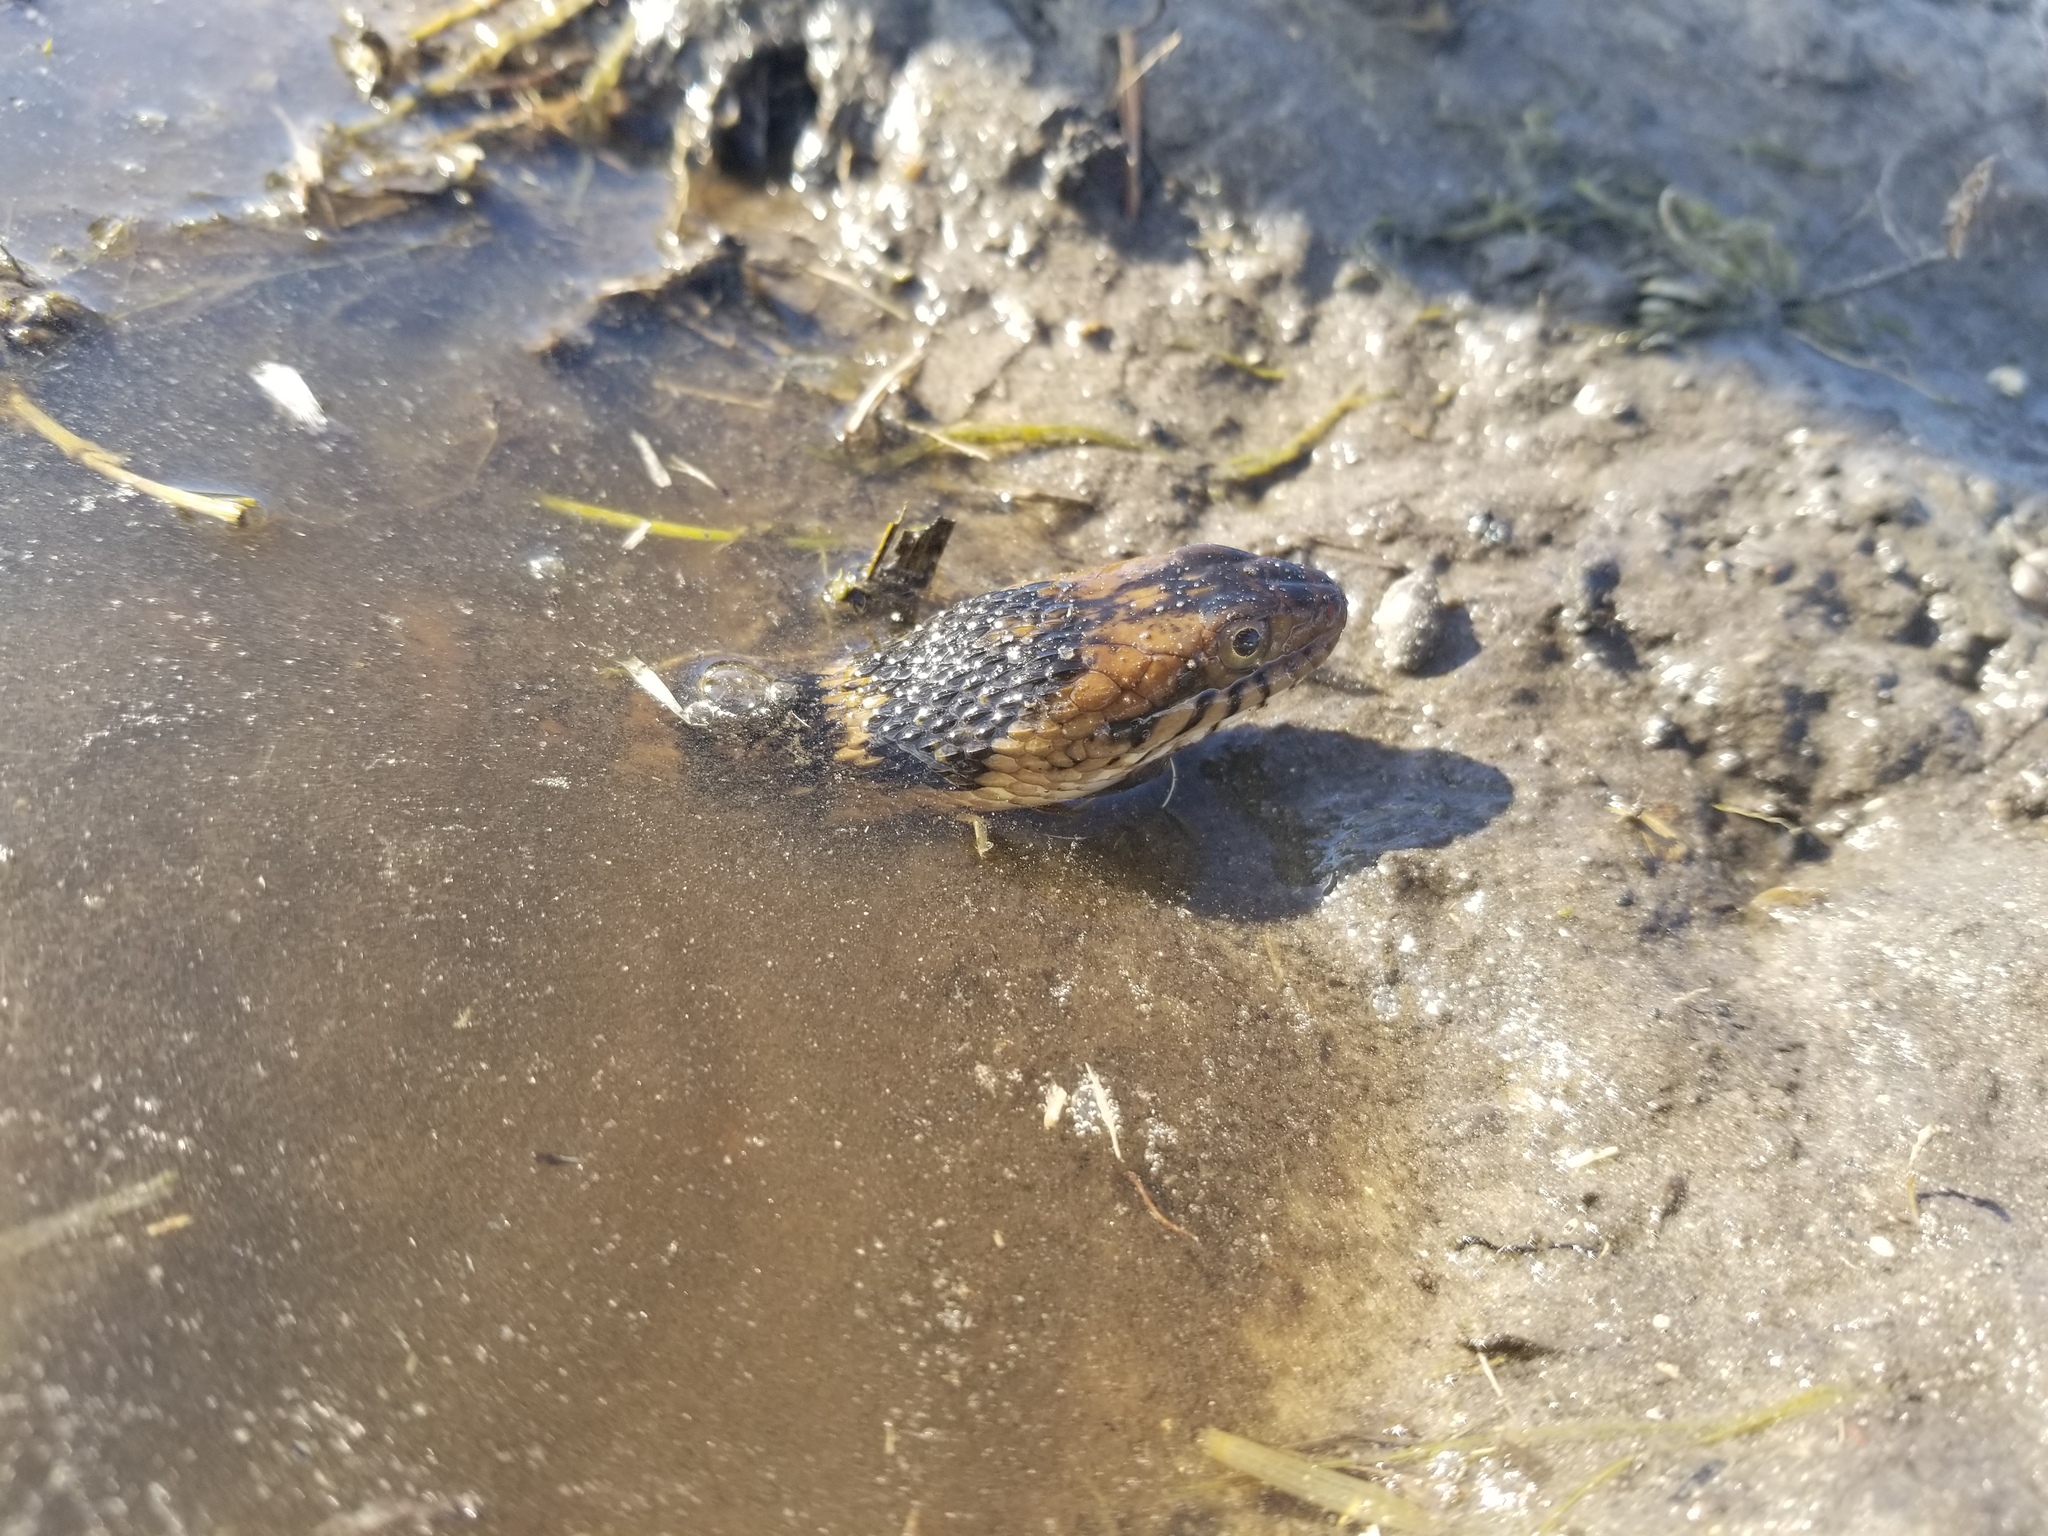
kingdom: Animalia
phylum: Chordata
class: Squamata
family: Colubridae
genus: Nerodia
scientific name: Nerodia fasciata
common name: Southern water snake
